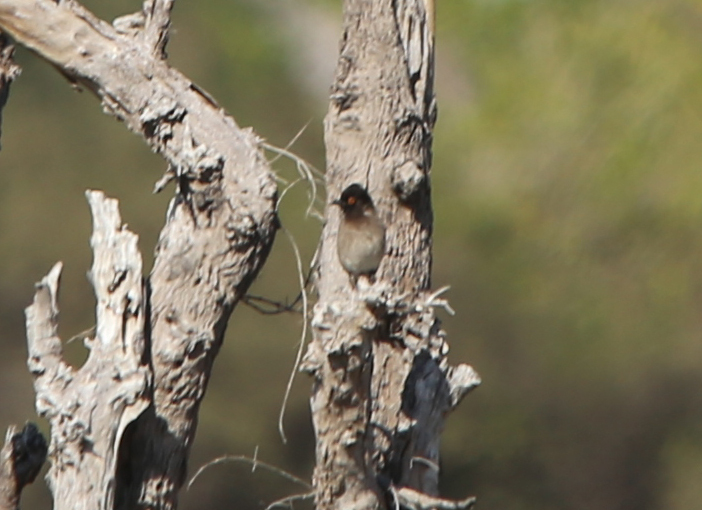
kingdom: Animalia
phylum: Chordata
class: Aves
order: Passeriformes
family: Pycnonotidae
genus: Pycnonotus
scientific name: Pycnonotus nigricans
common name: African red-eyed bulbul
